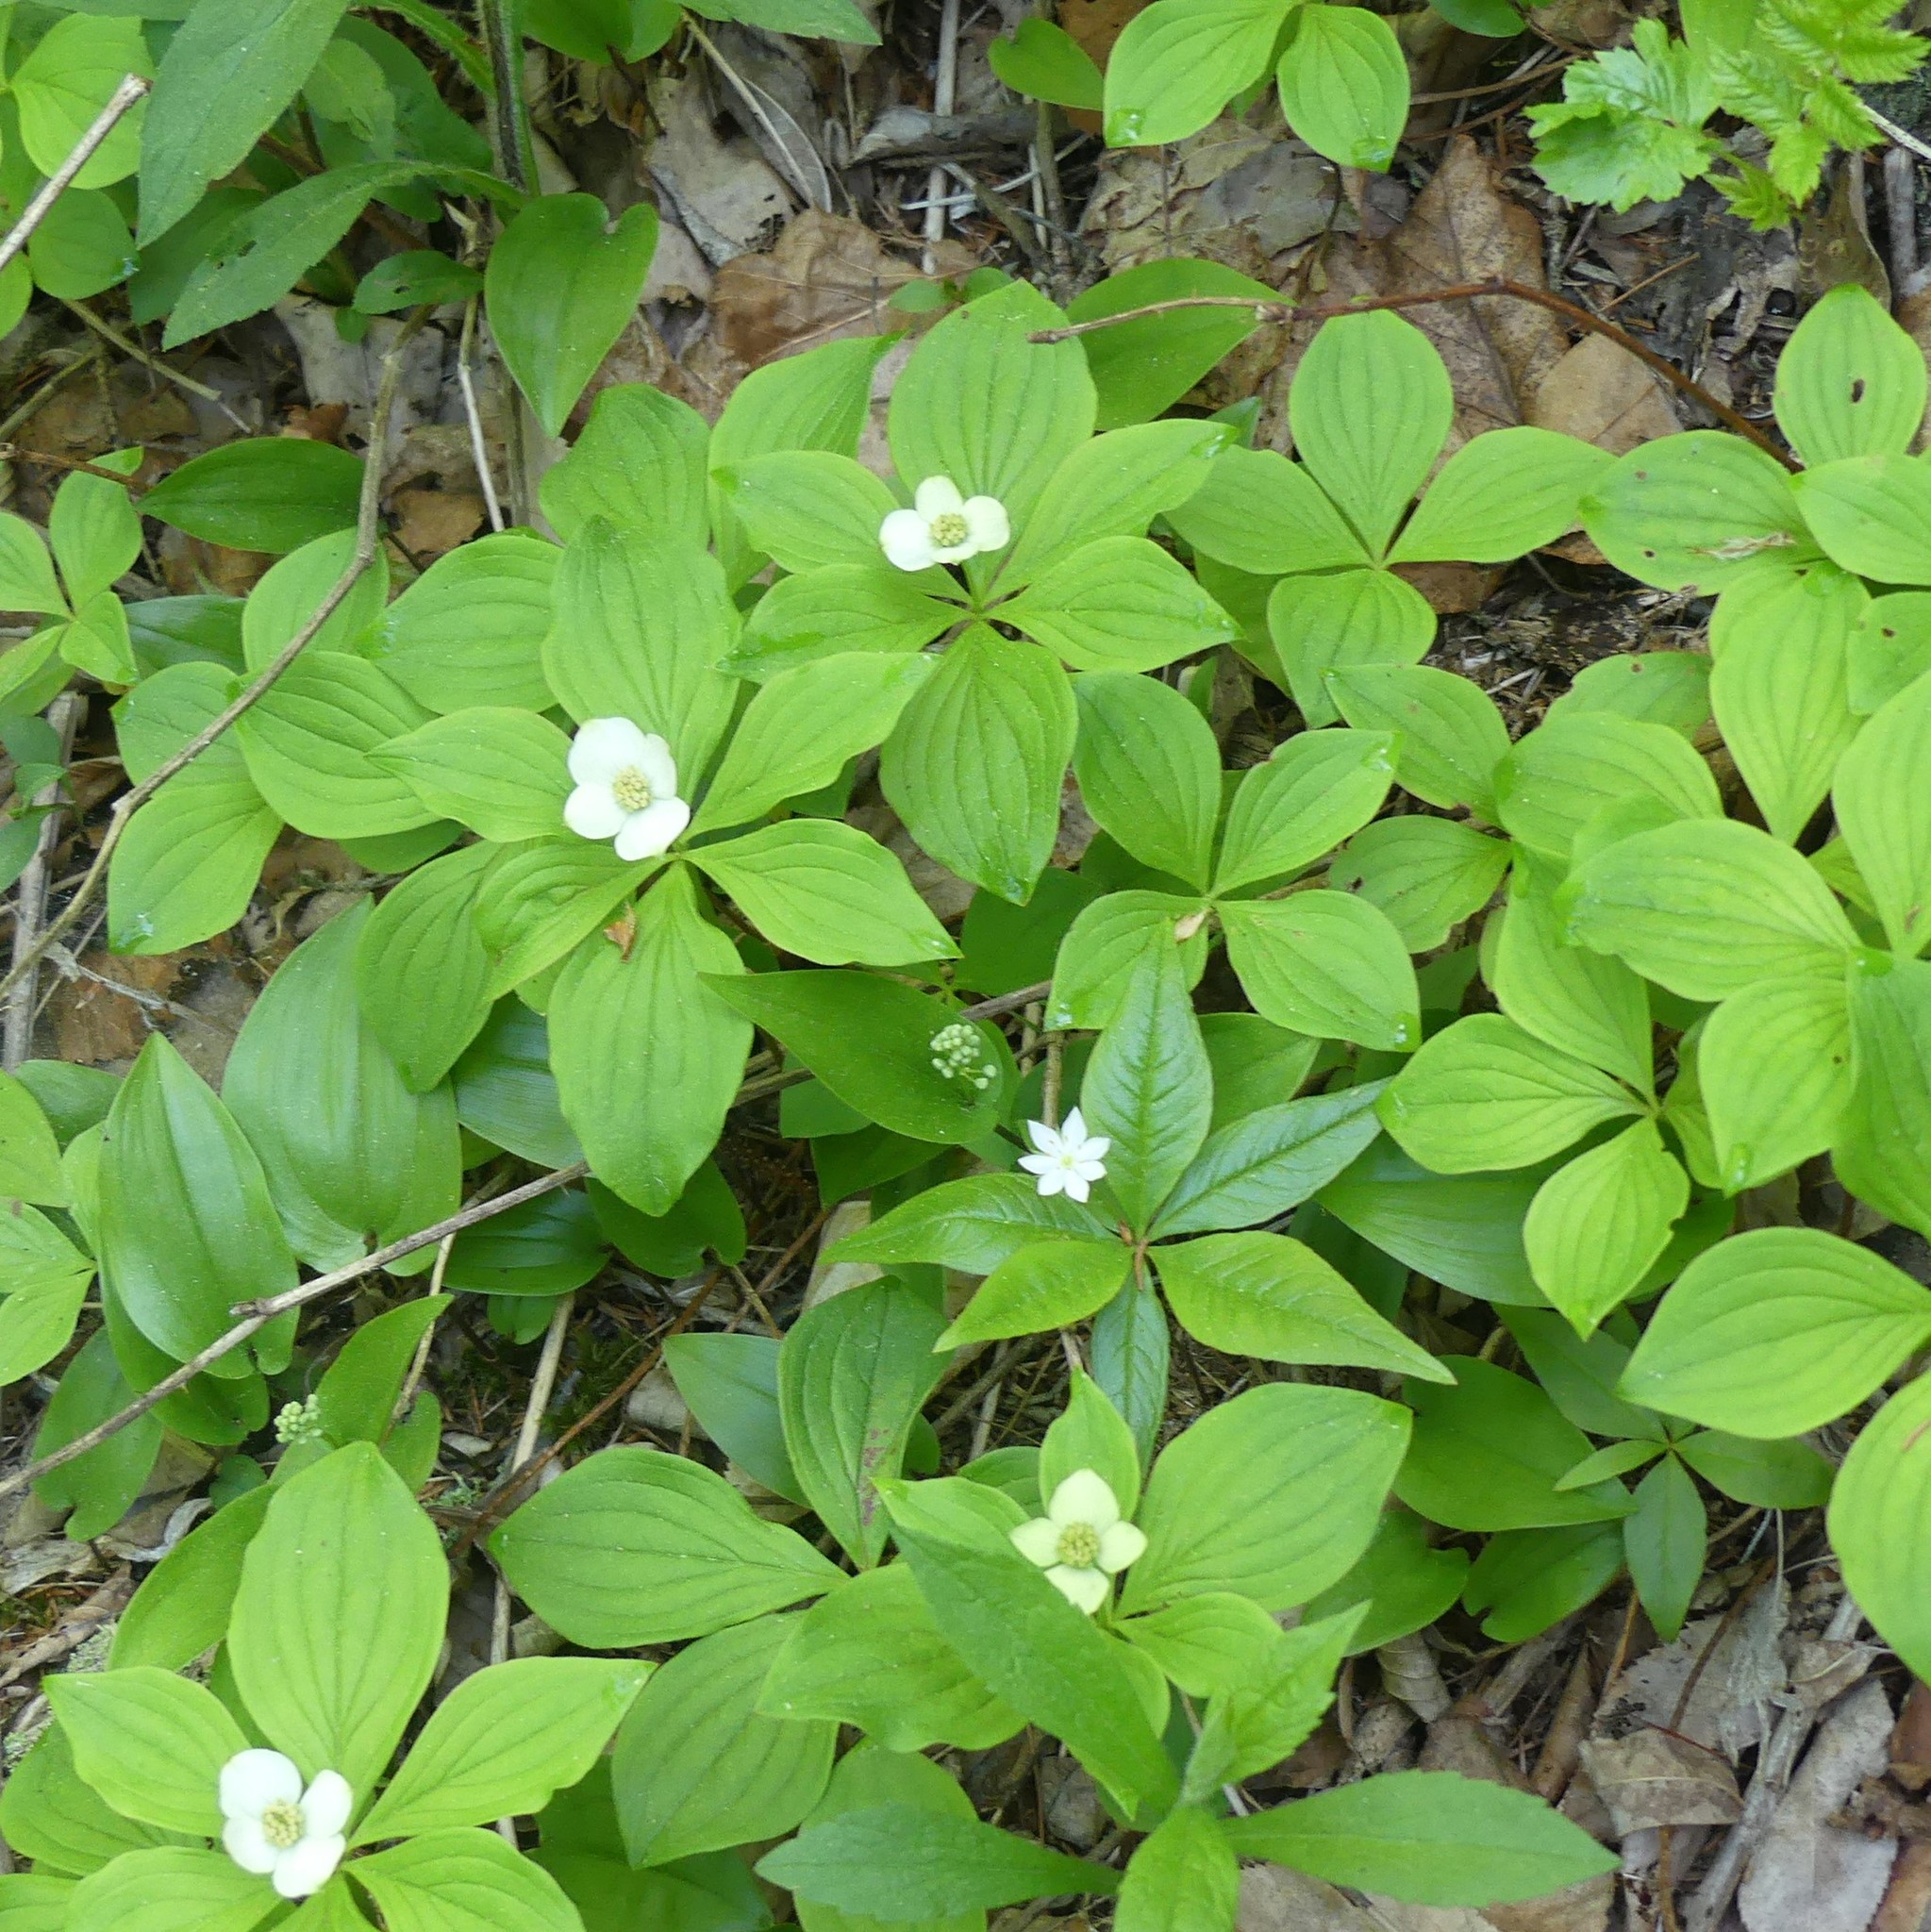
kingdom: Plantae
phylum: Tracheophyta
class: Magnoliopsida
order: Ericales
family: Primulaceae
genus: Lysimachia
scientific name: Lysimachia borealis
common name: American starflower
